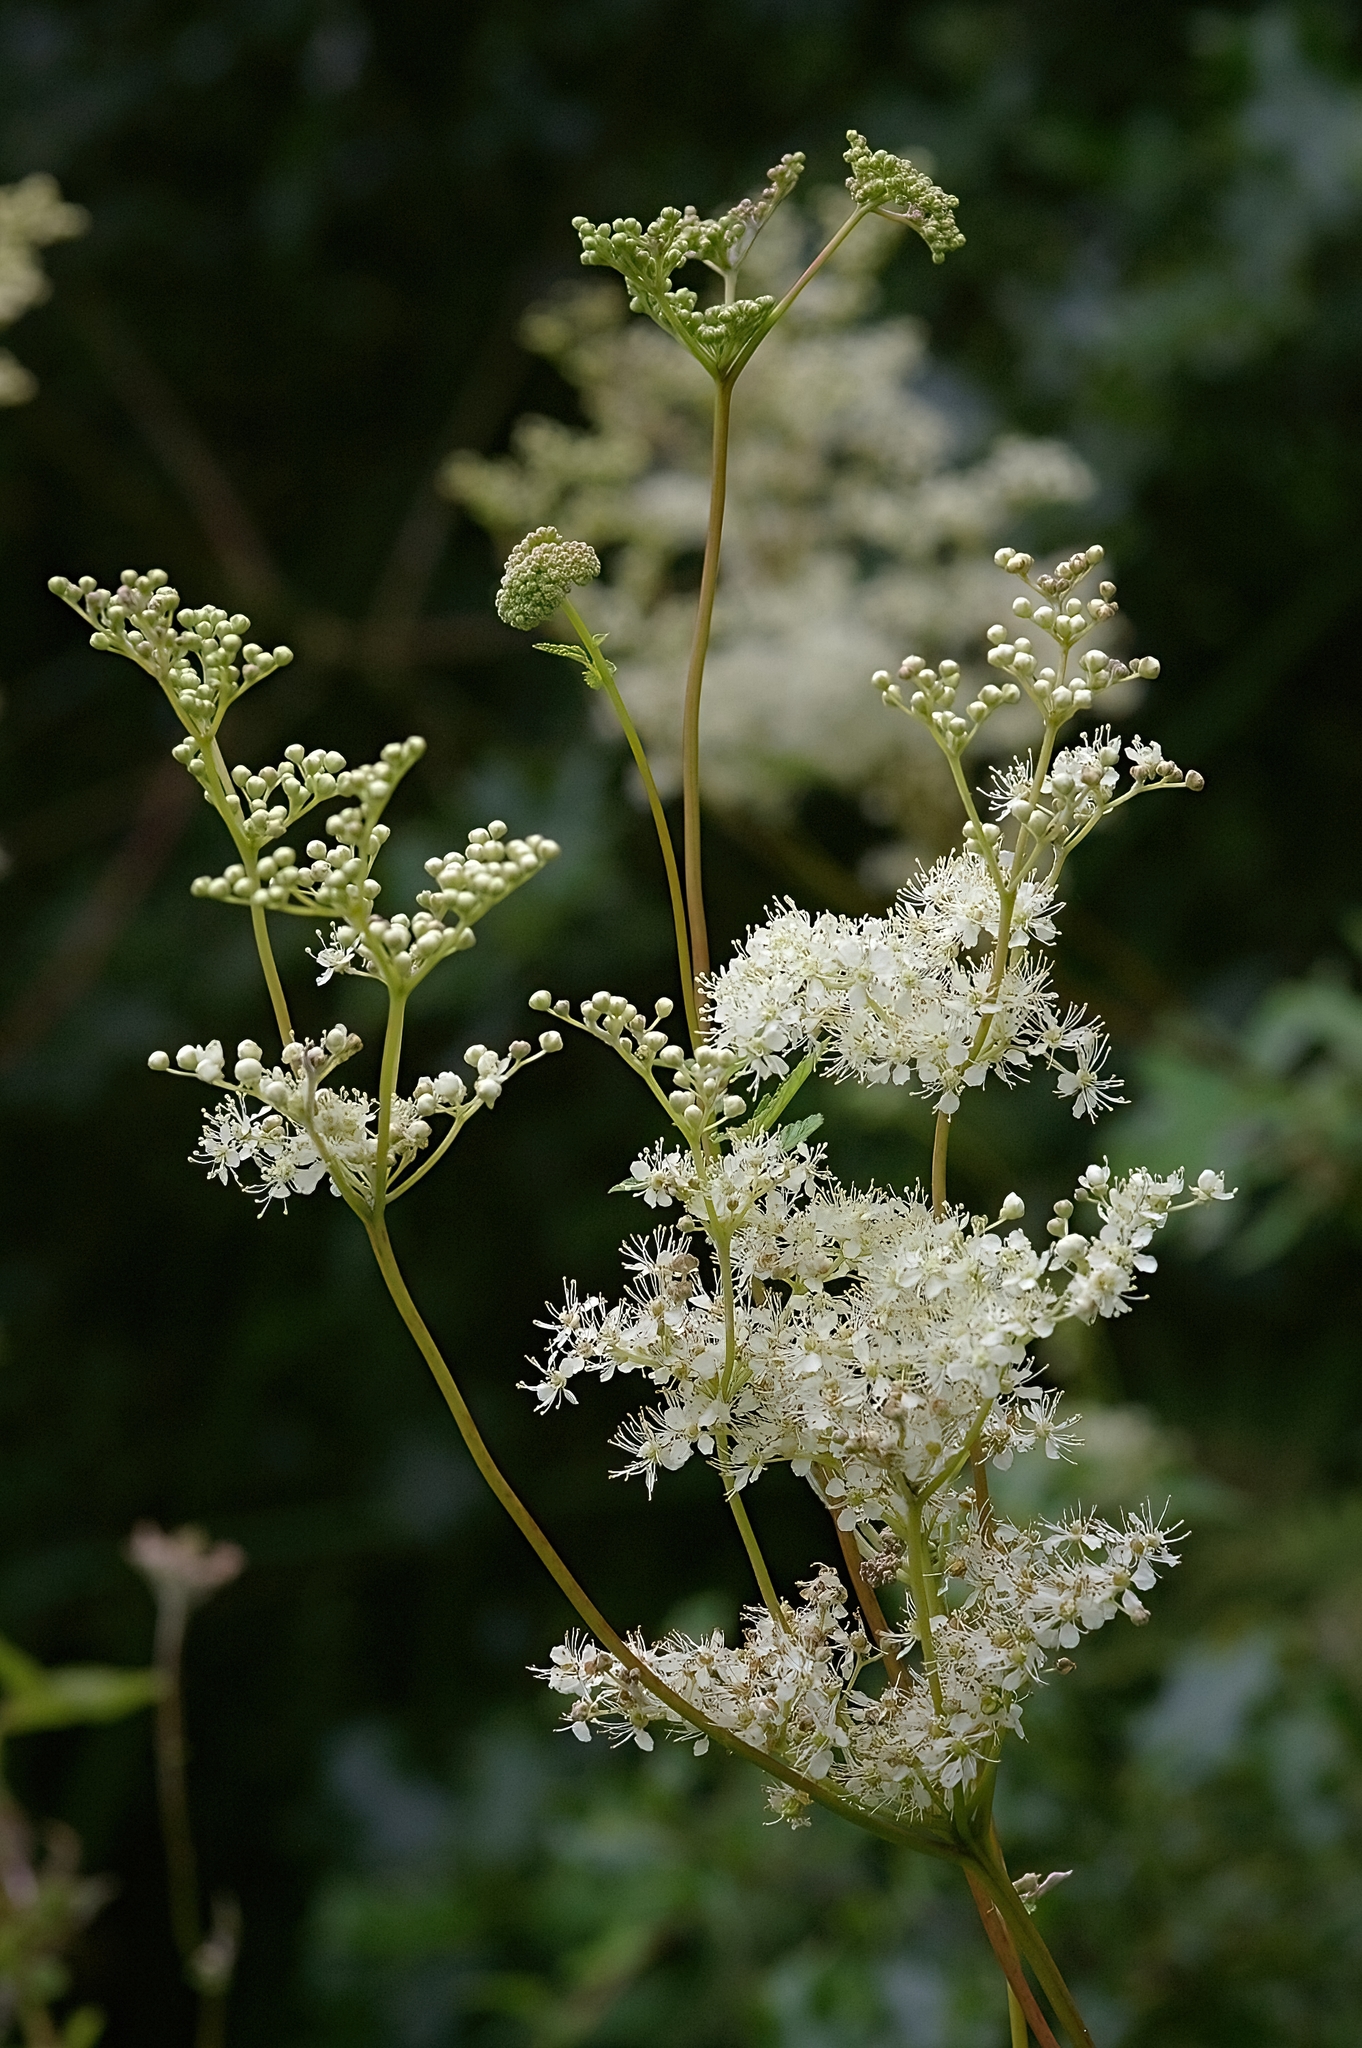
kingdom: Plantae
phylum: Tracheophyta
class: Magnoliopsida
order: Rosales
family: Rosaceae
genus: Filipendula
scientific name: Filipendula ulmaria
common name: Meadowsweet
